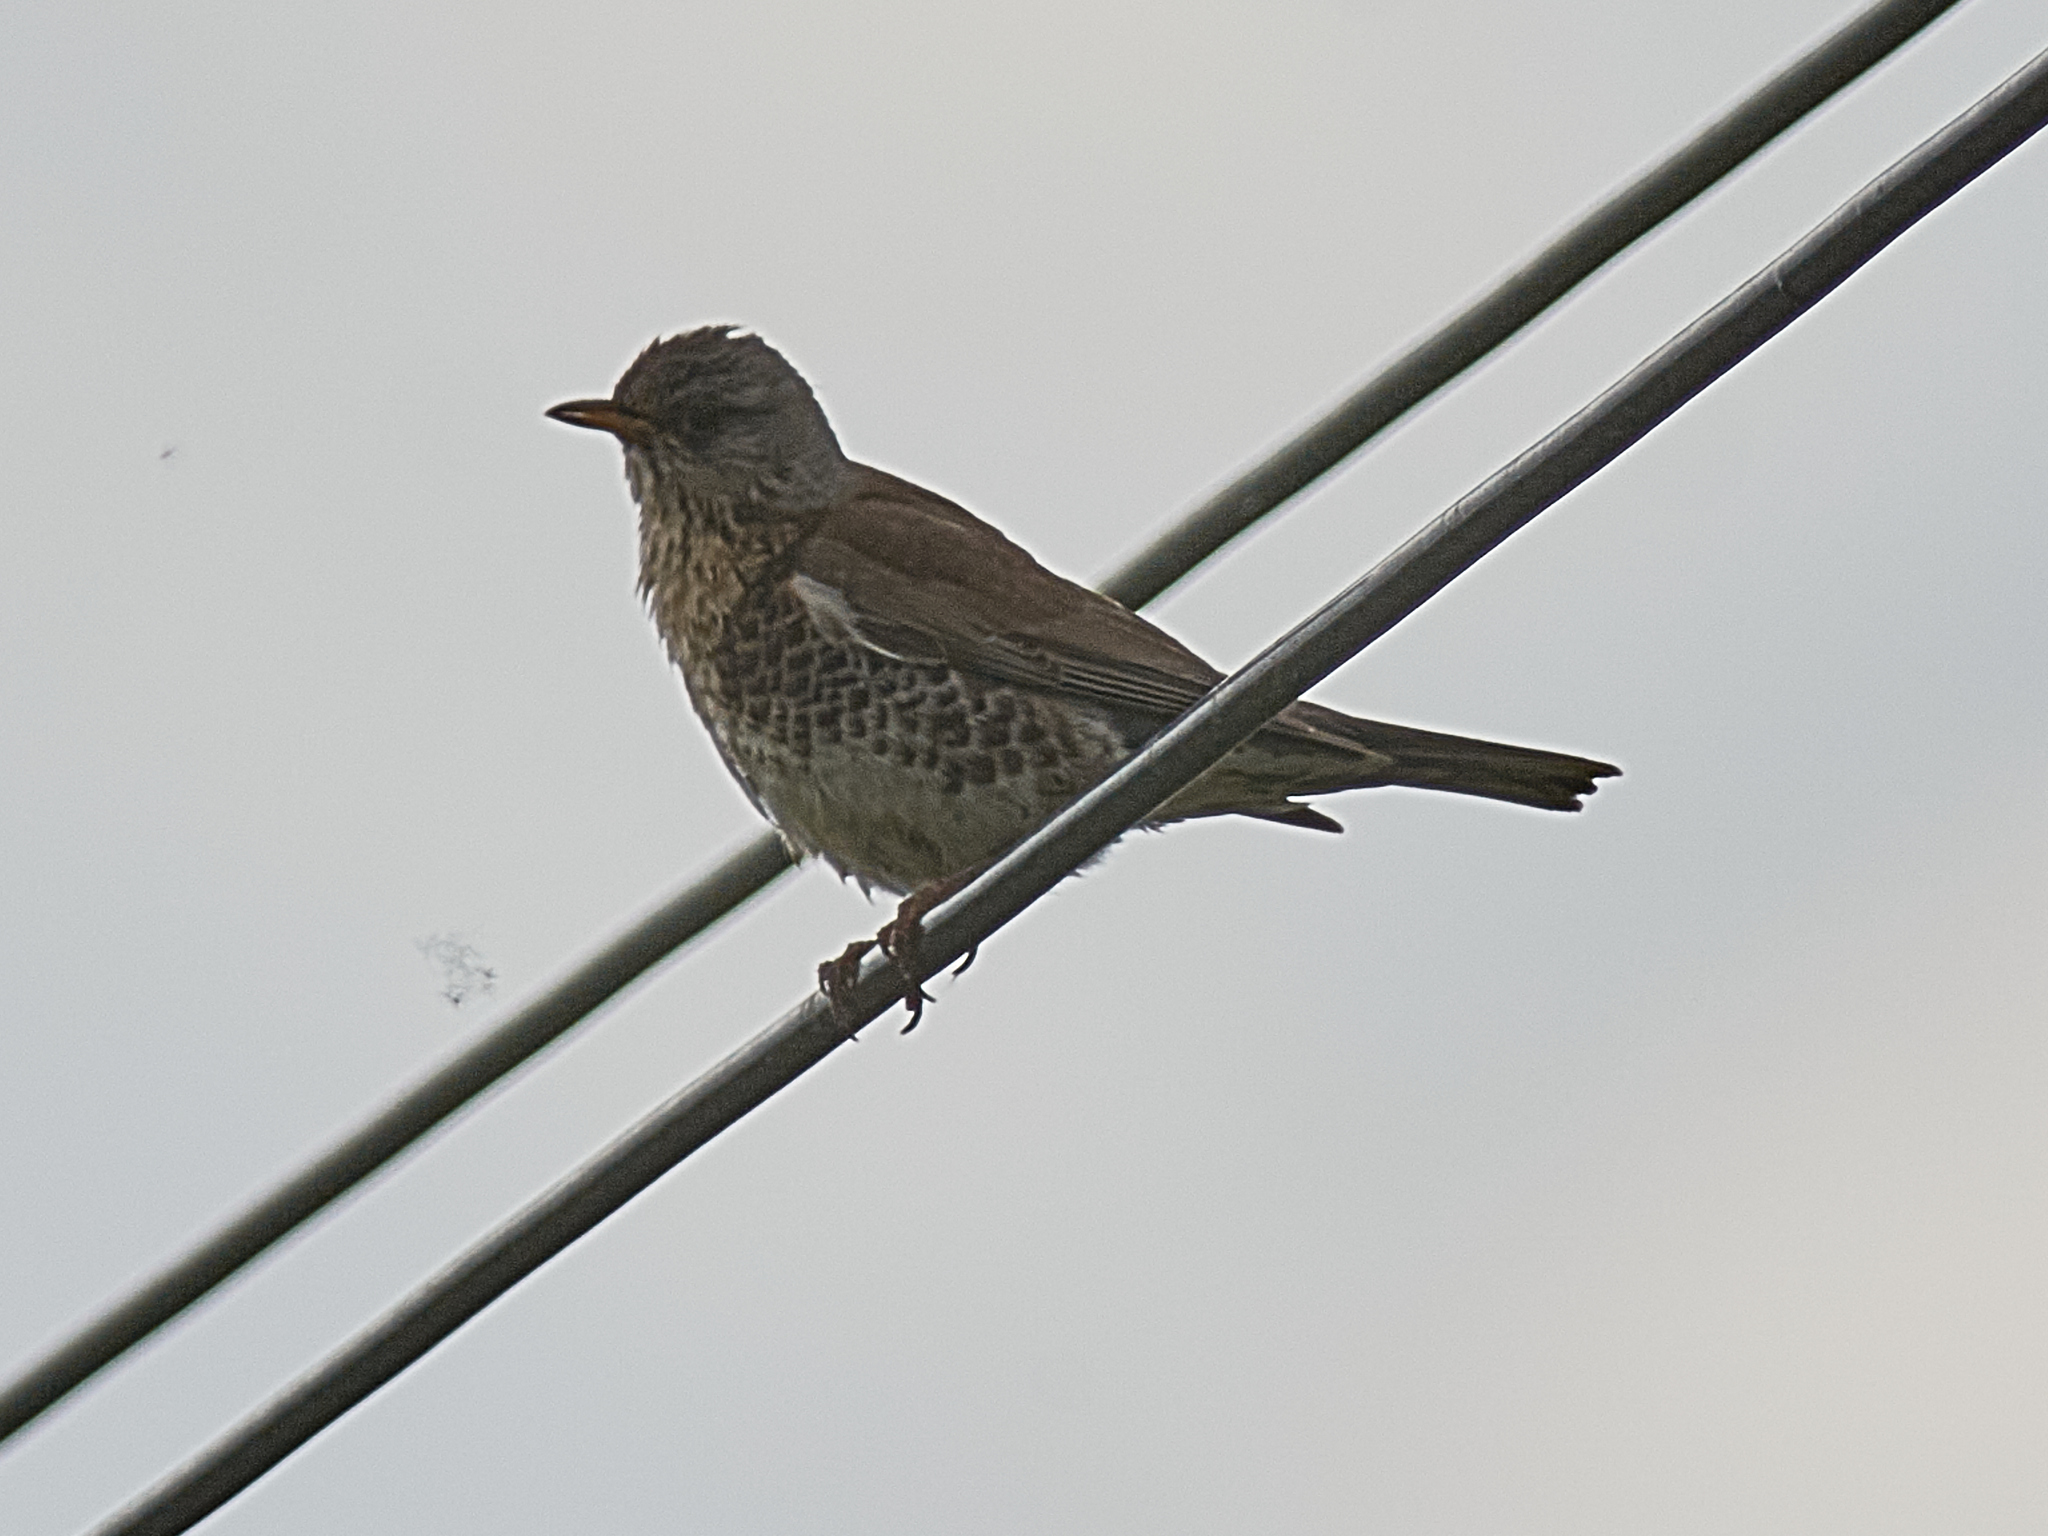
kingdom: Animalia
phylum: Chordata
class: Aves
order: Passeriformes
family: Turdidae
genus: Turdus
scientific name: Turdus pilaris
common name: Fieldfare
